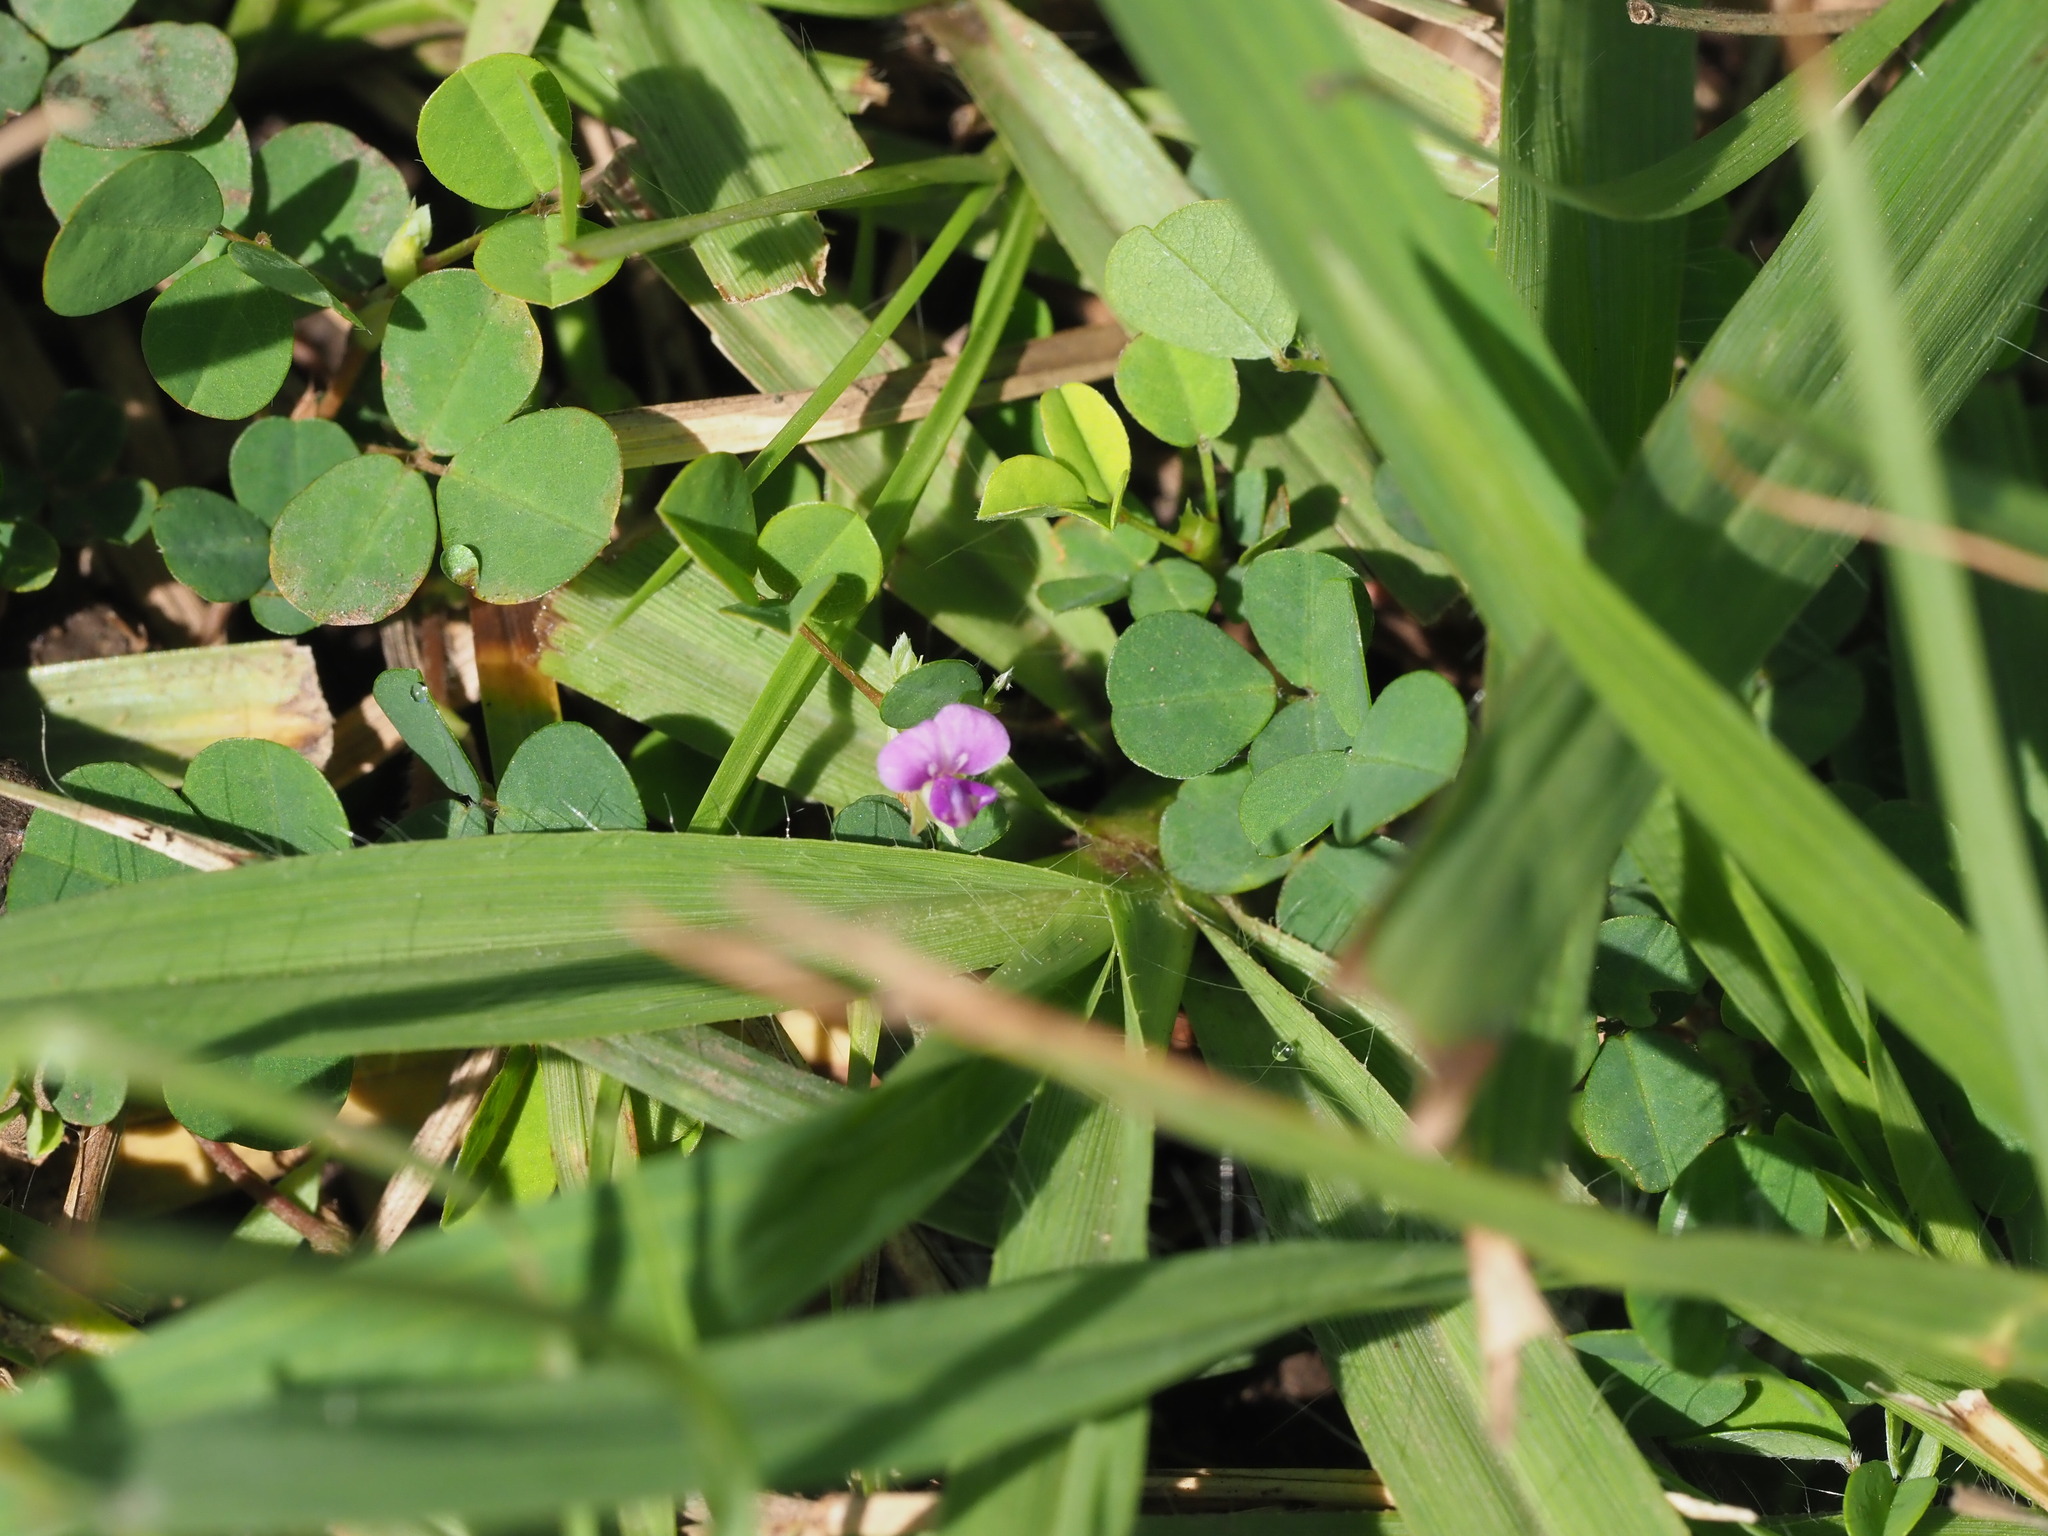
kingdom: Plantae
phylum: Tracheophyta
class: Magnoliopsida
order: Fabales
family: Fabaceae
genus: Grona
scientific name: Grona triflora
